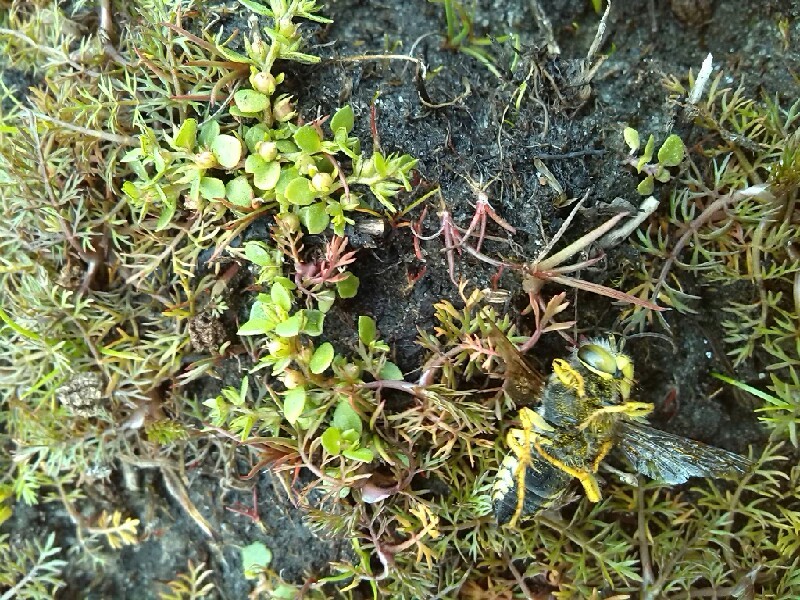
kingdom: Animalia
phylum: Arthropoda
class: Insecta
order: Hymenoptera
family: Crabronidae
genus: Bembix
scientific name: Bembix rostrata
